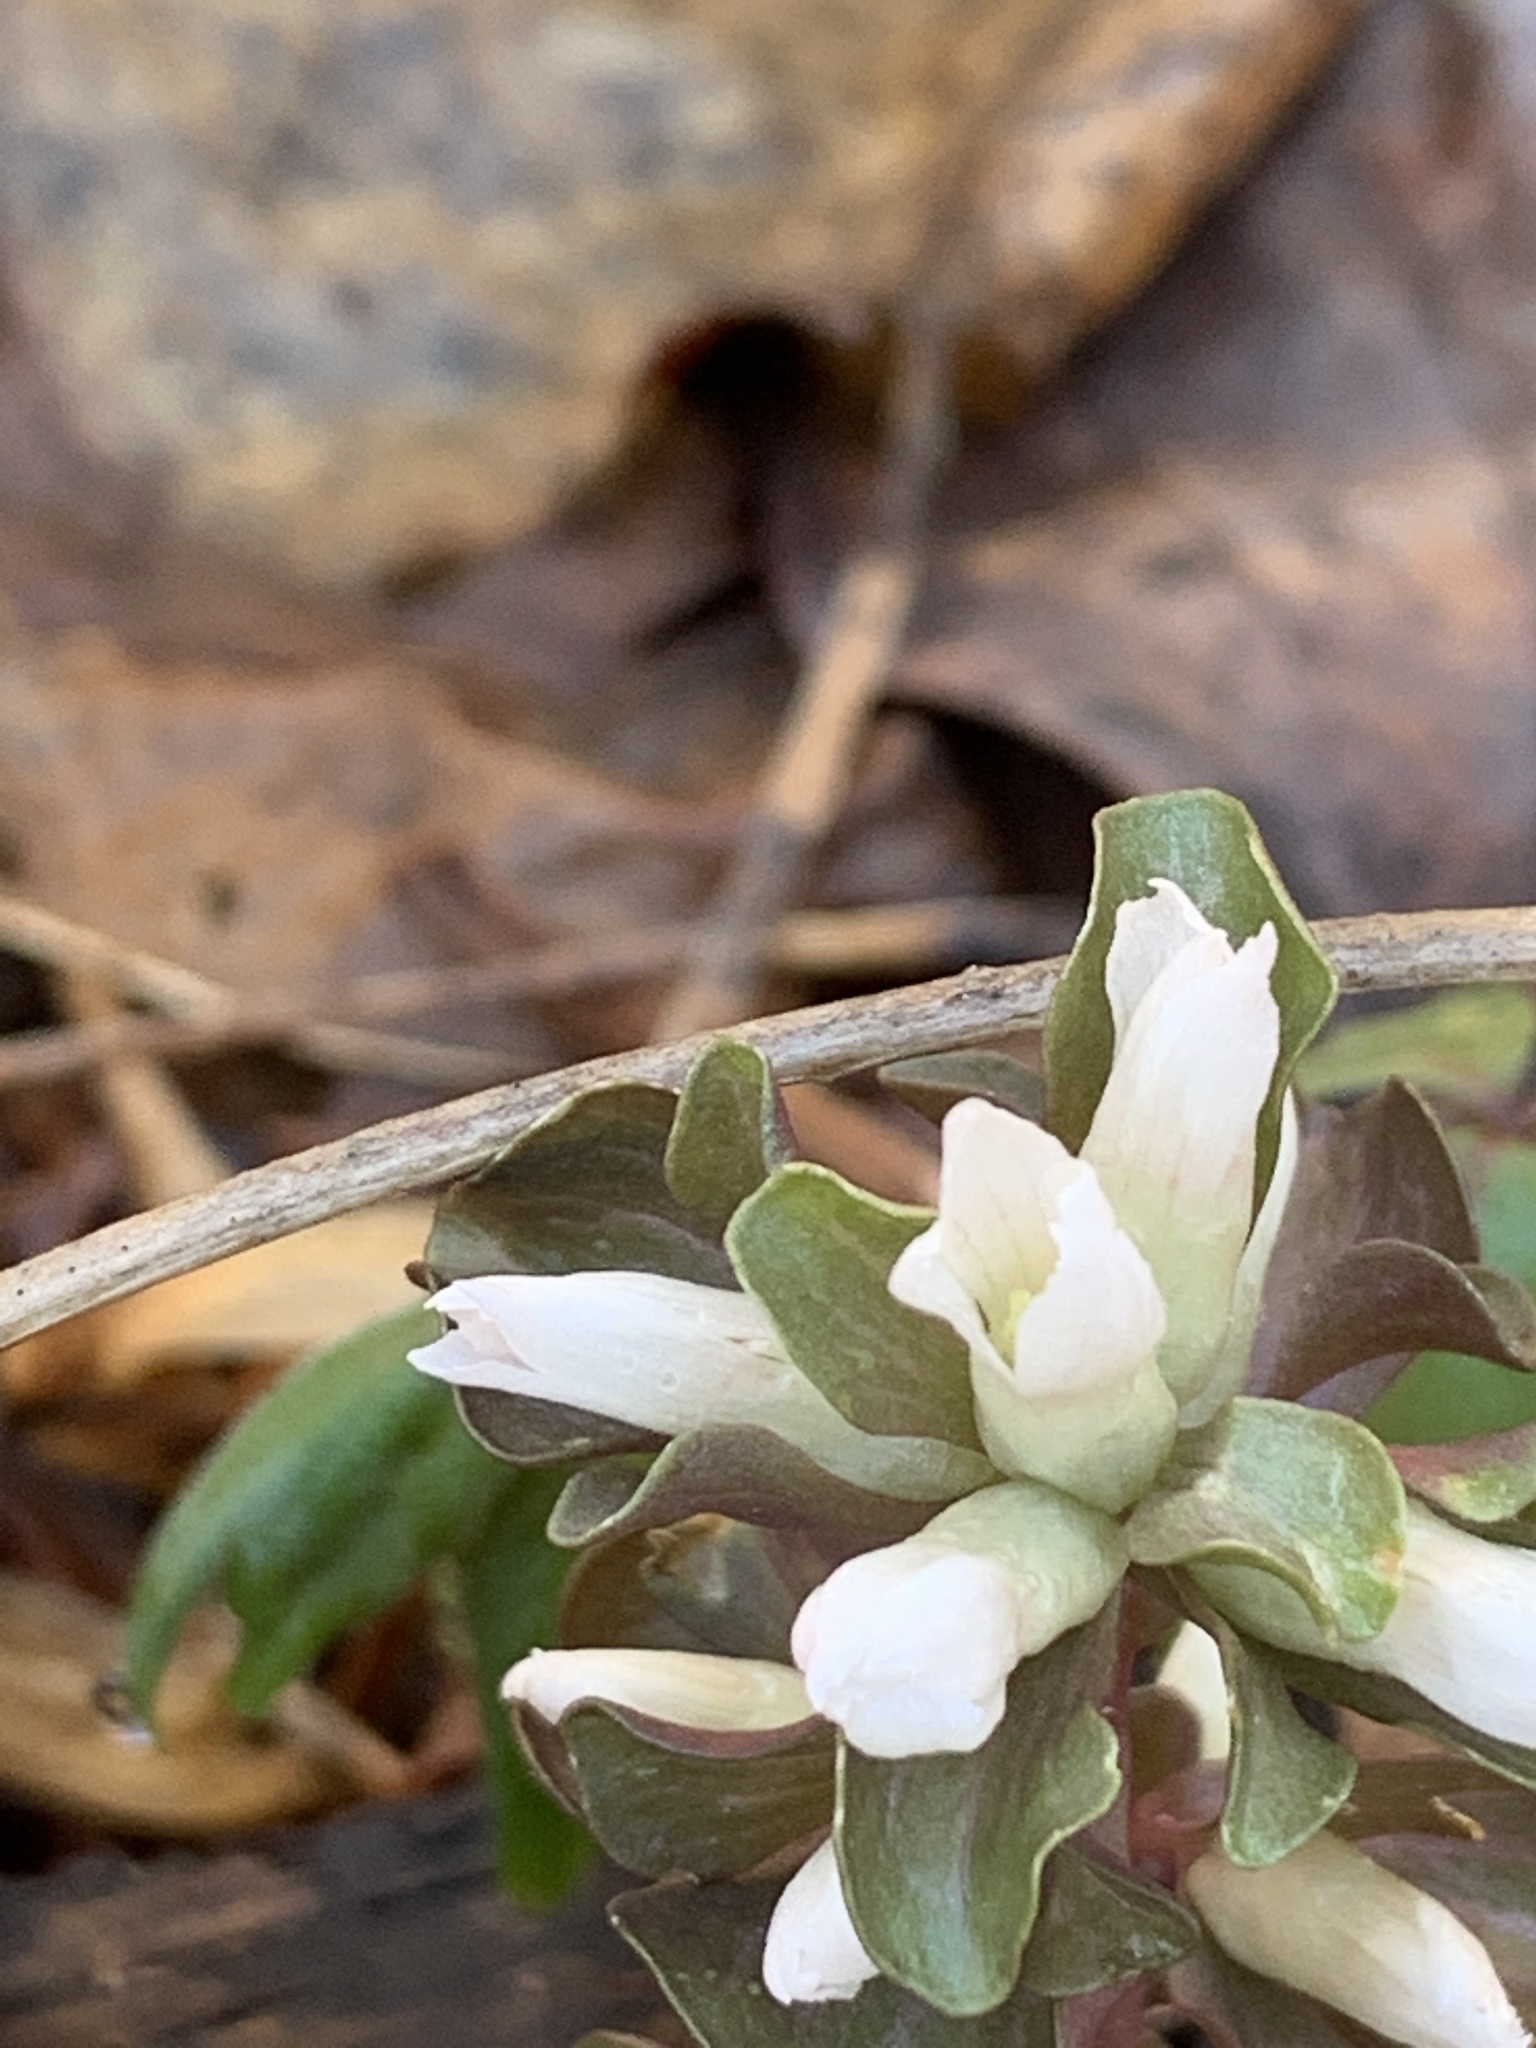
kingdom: Plantae
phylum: Tracheophyta
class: Magnoliopsida
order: Gentianales
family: Gentianaceae
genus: Obolaria
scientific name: Obolaria virginica
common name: Pennywort
